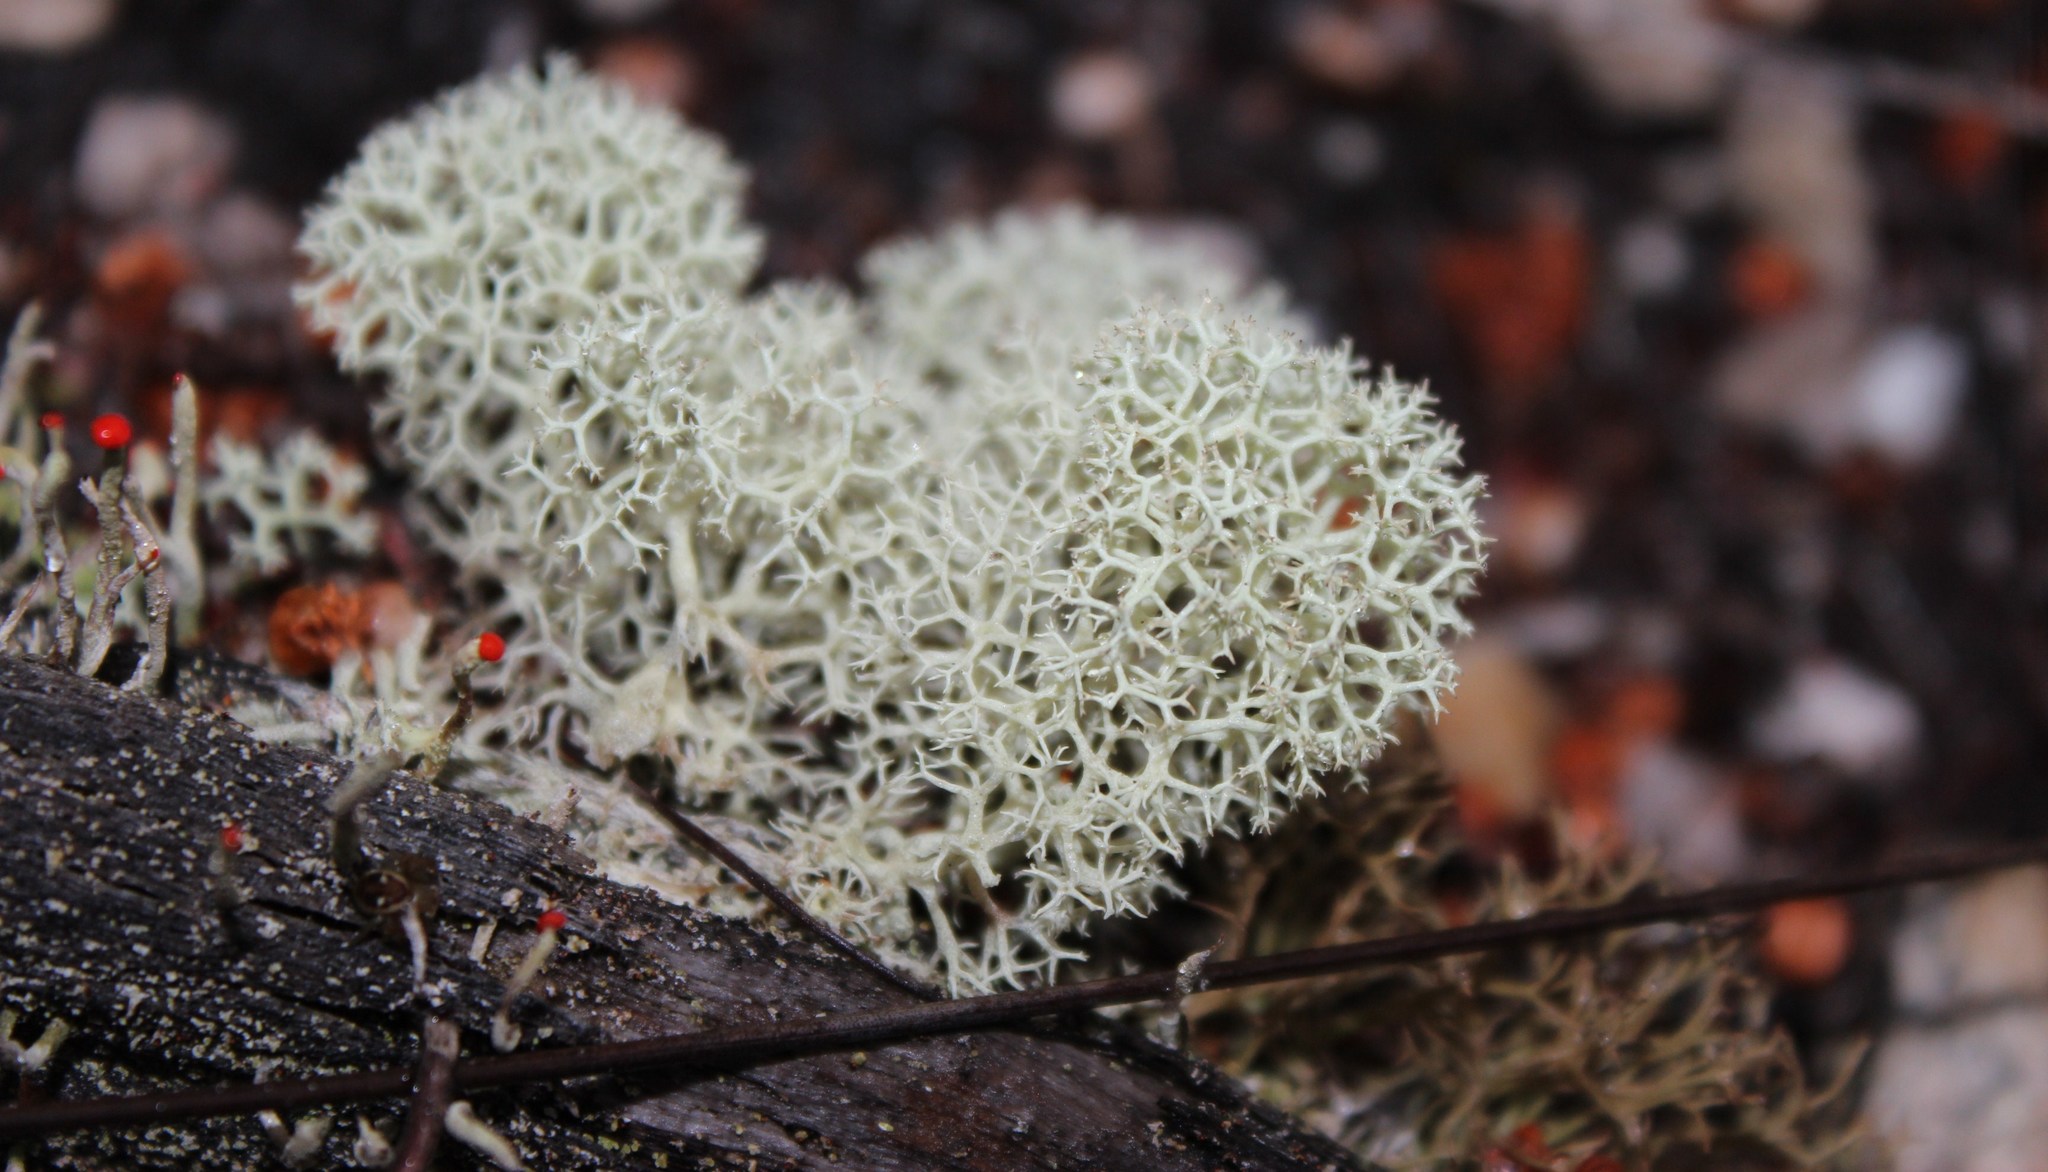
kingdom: Fungi
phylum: Ascomycota
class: Lecanoromycetes
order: Lecanorales
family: Cladoniaceae
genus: Cladonia
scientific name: Cladonia confusa
